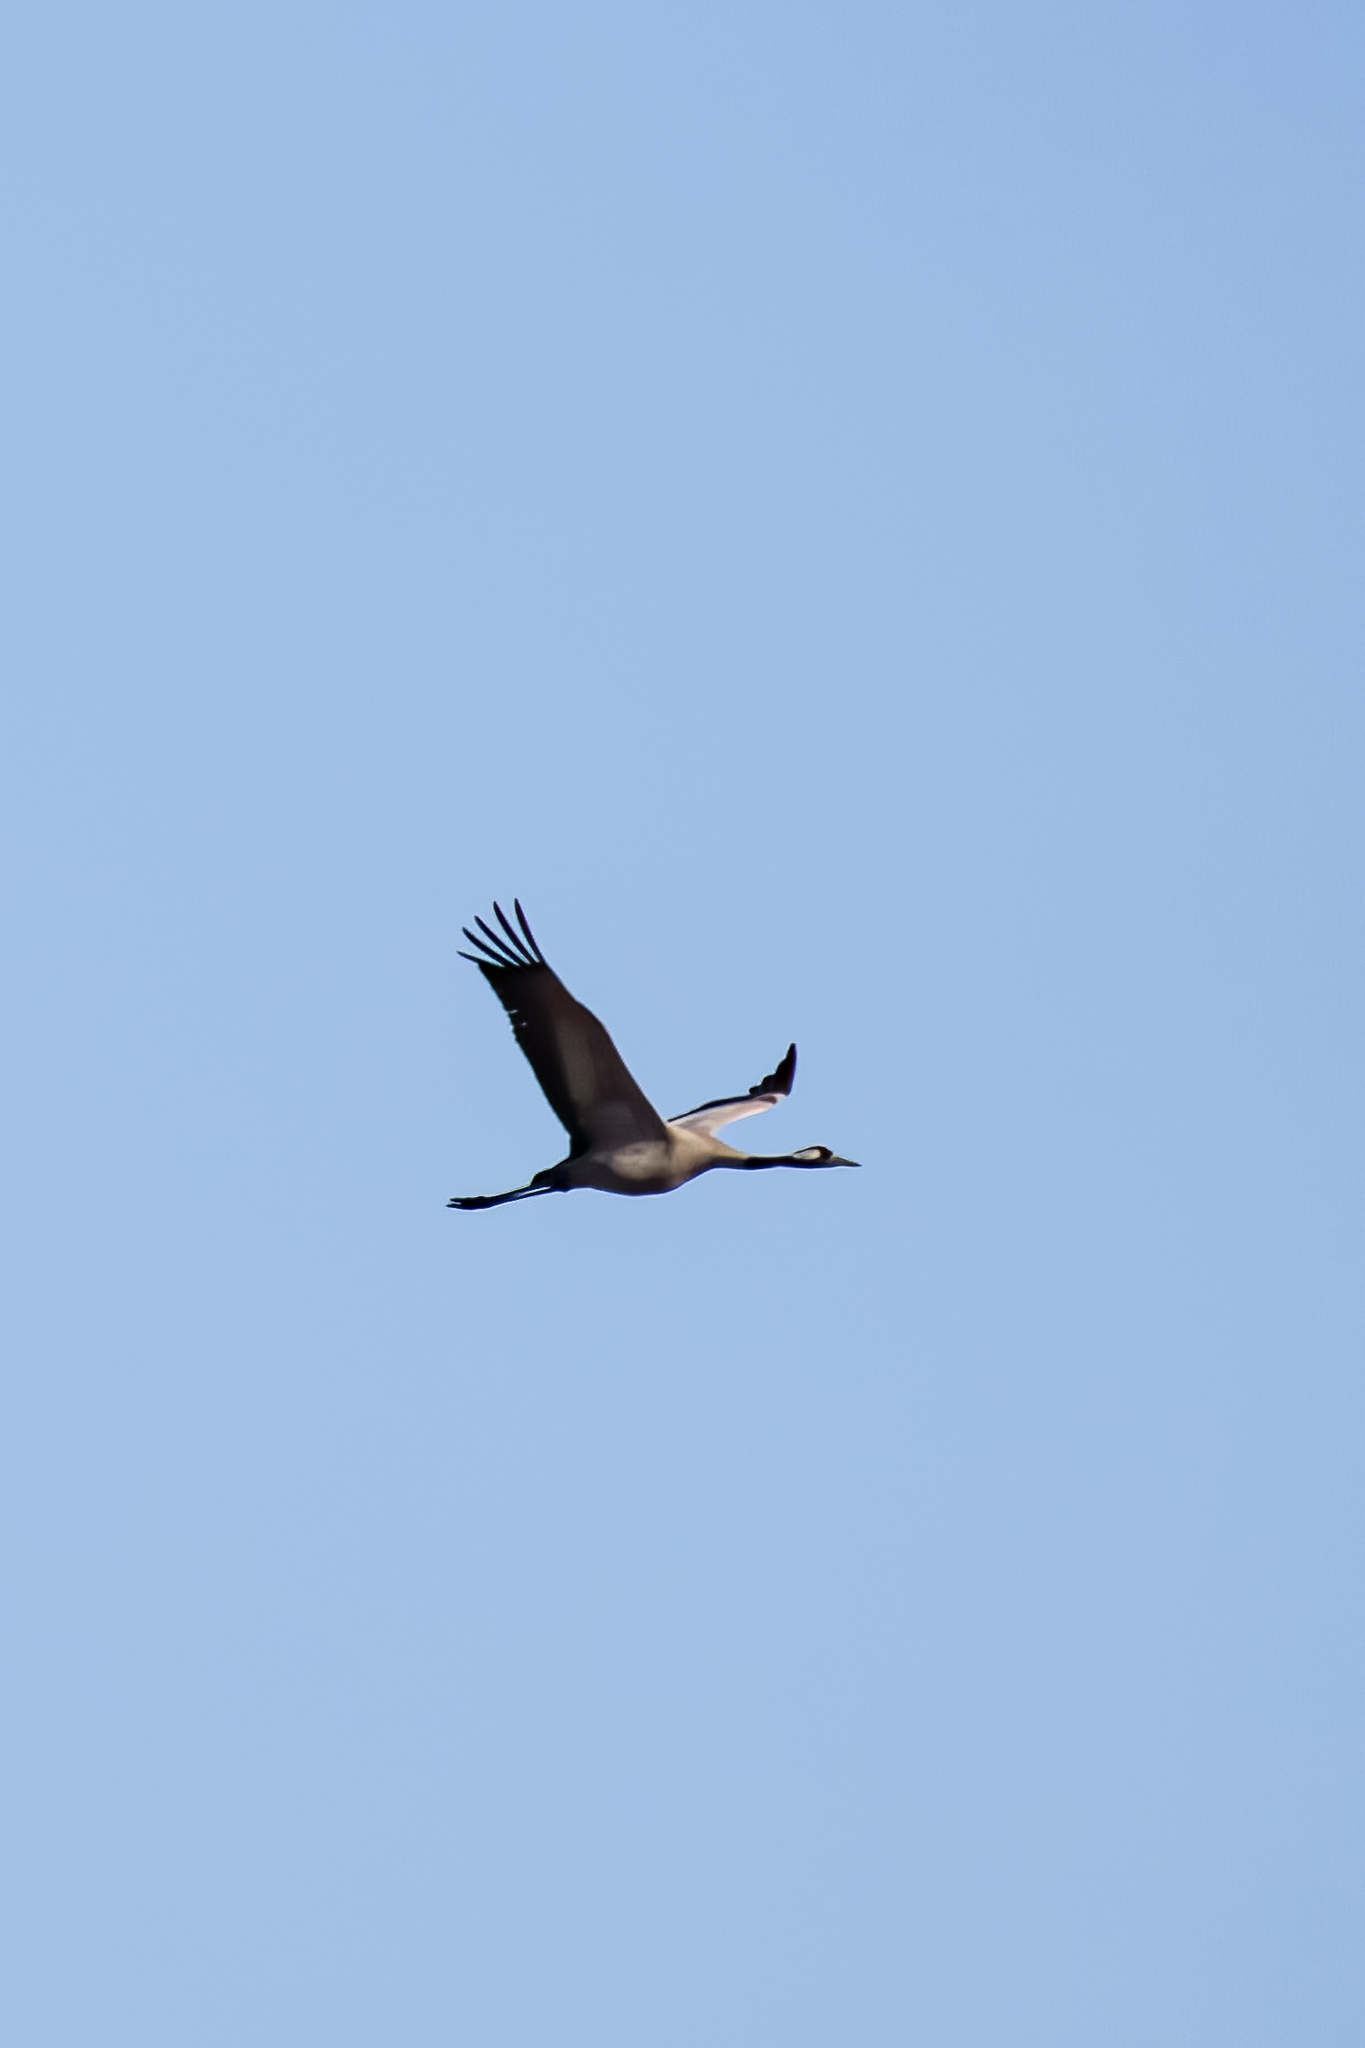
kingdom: Animalia
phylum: Chordata
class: Aves
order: Gruiformes
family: Gruidae
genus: Grus
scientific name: Grus grus
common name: Common crane
